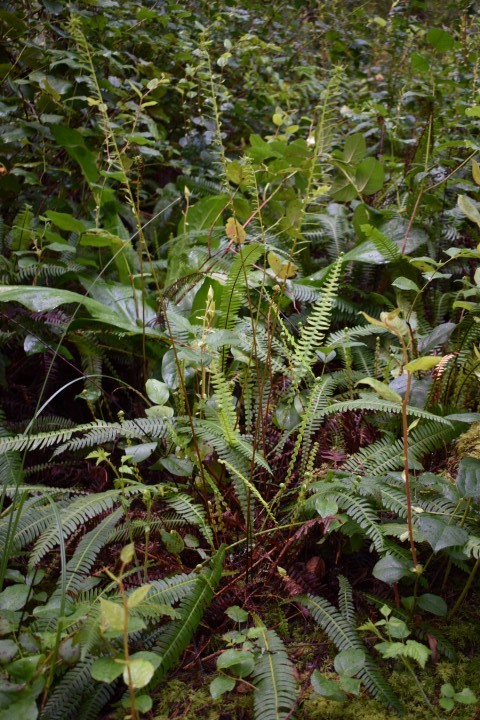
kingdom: Plantae
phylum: Tracheophyta
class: Polypodiopsida
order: Polypodiales
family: Blechnaceae
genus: Struthiopteris
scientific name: Struthiopteris spicant
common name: Deer fern
